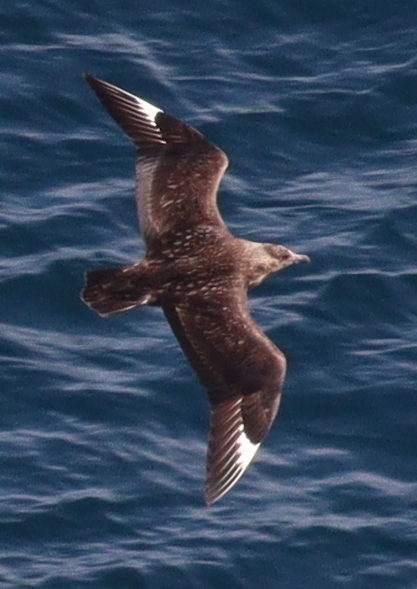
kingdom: Animalia
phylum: Chordata
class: Aves
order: Charadriiformes
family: Stercorariidae
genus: Stercorarius
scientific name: Stercorarius skua
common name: Great skua
